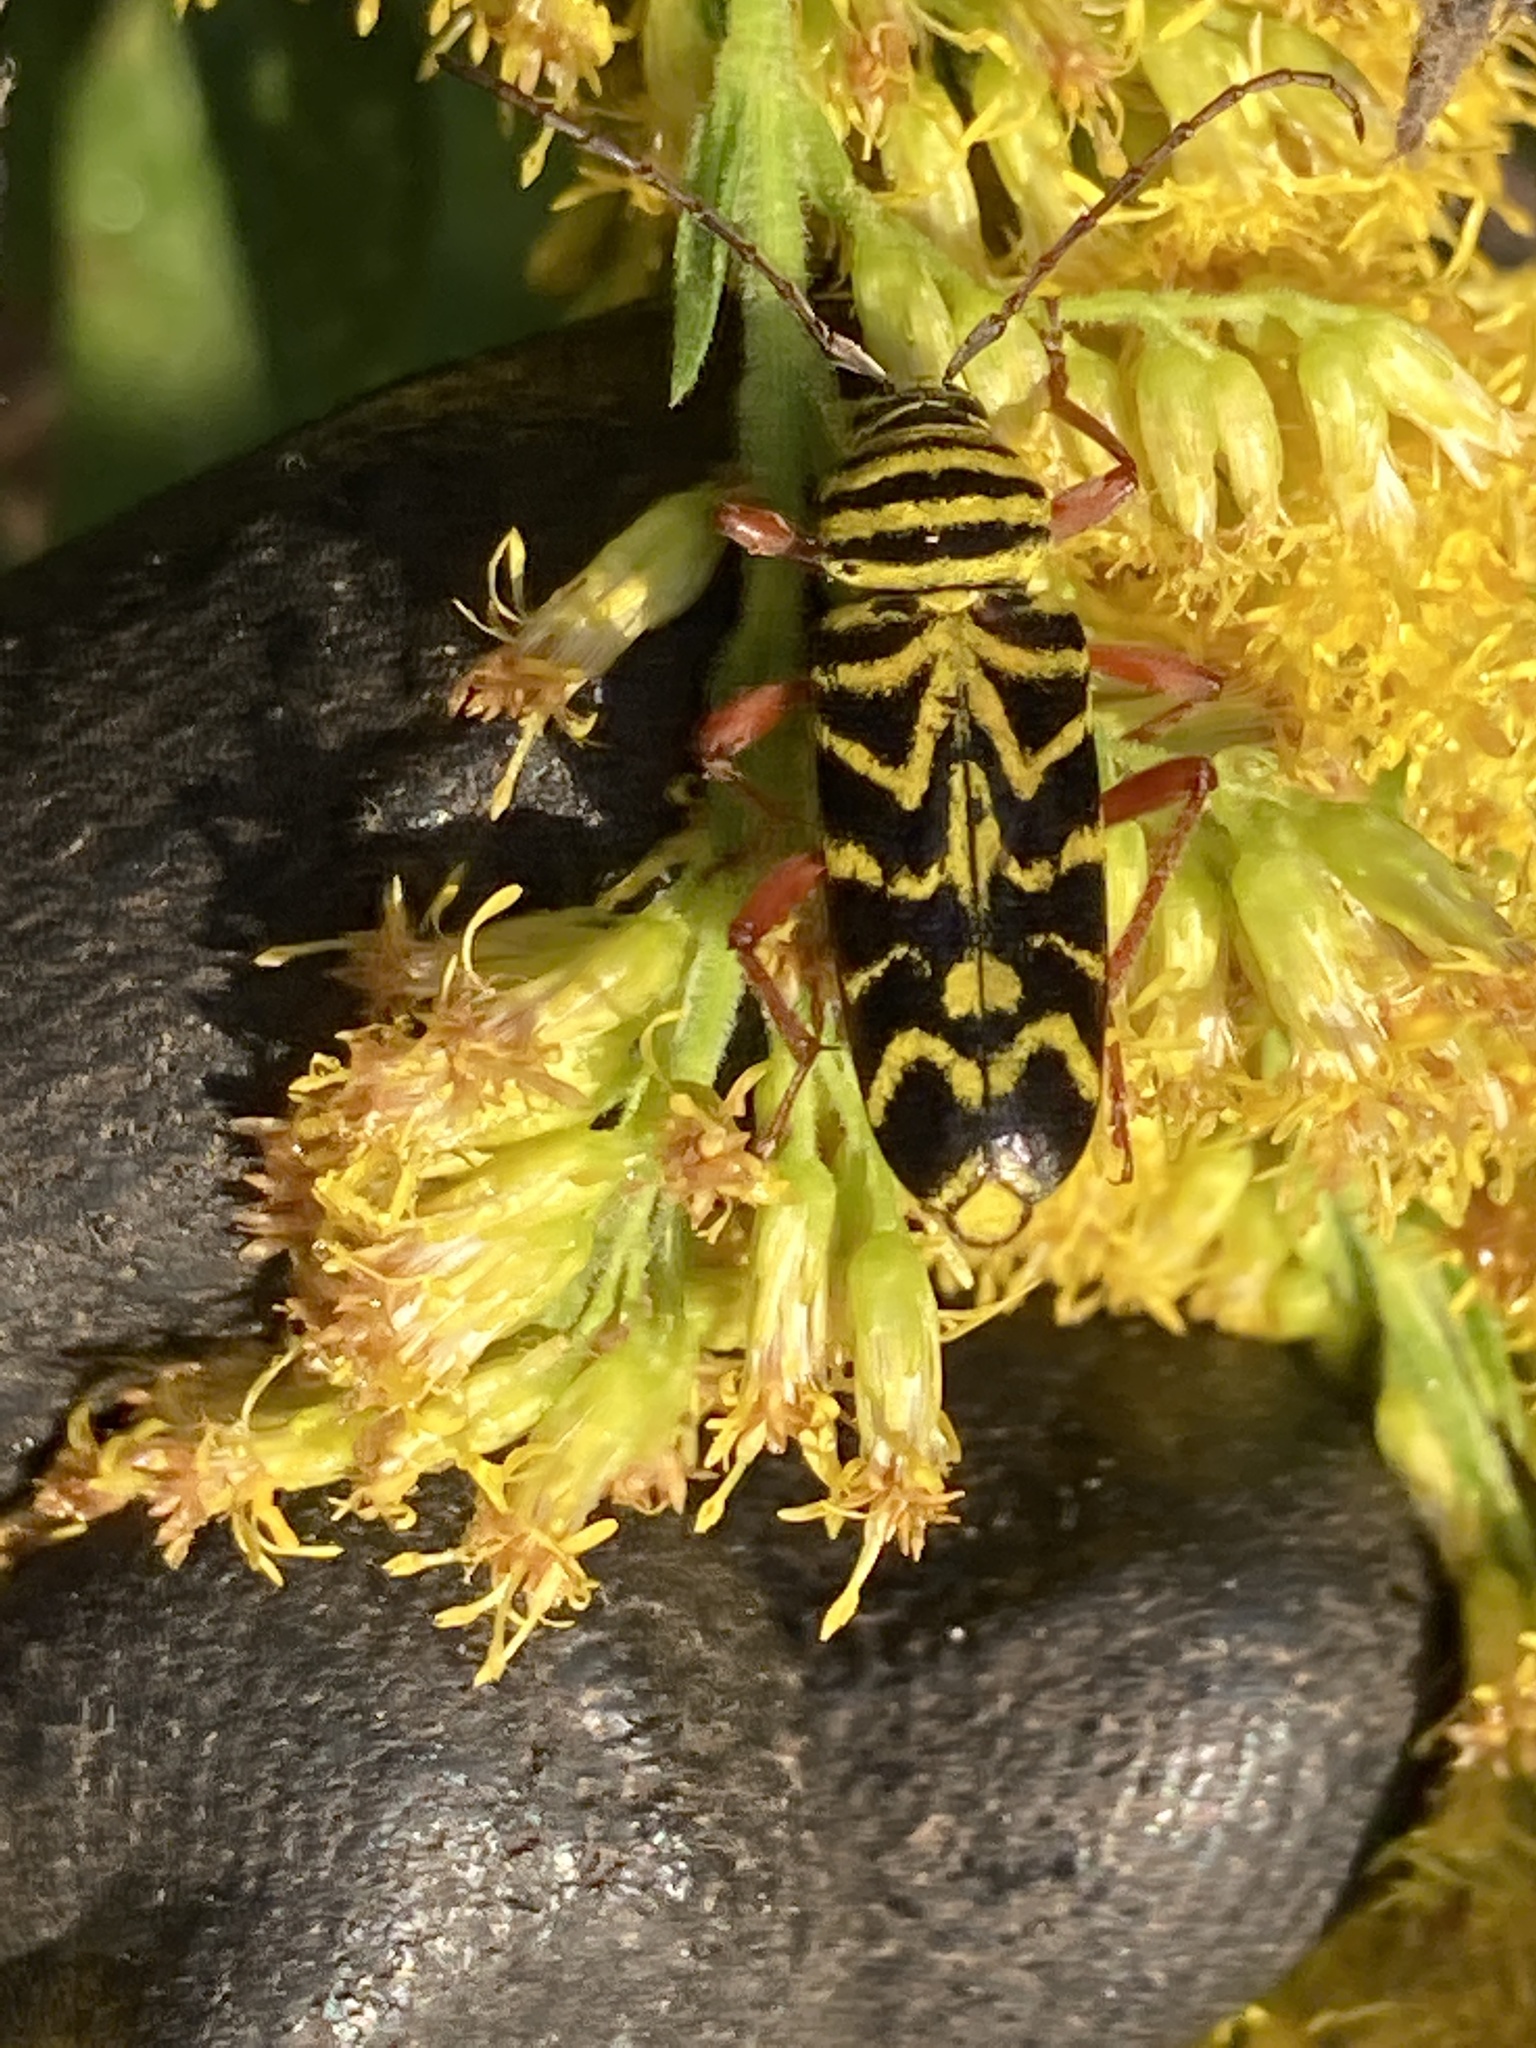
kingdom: Animalia
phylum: Arthropoda
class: Insecta
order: Coleoptera
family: Cerambycidae
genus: Megacyllene
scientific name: Megacyllene robiniae
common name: Locust borer
